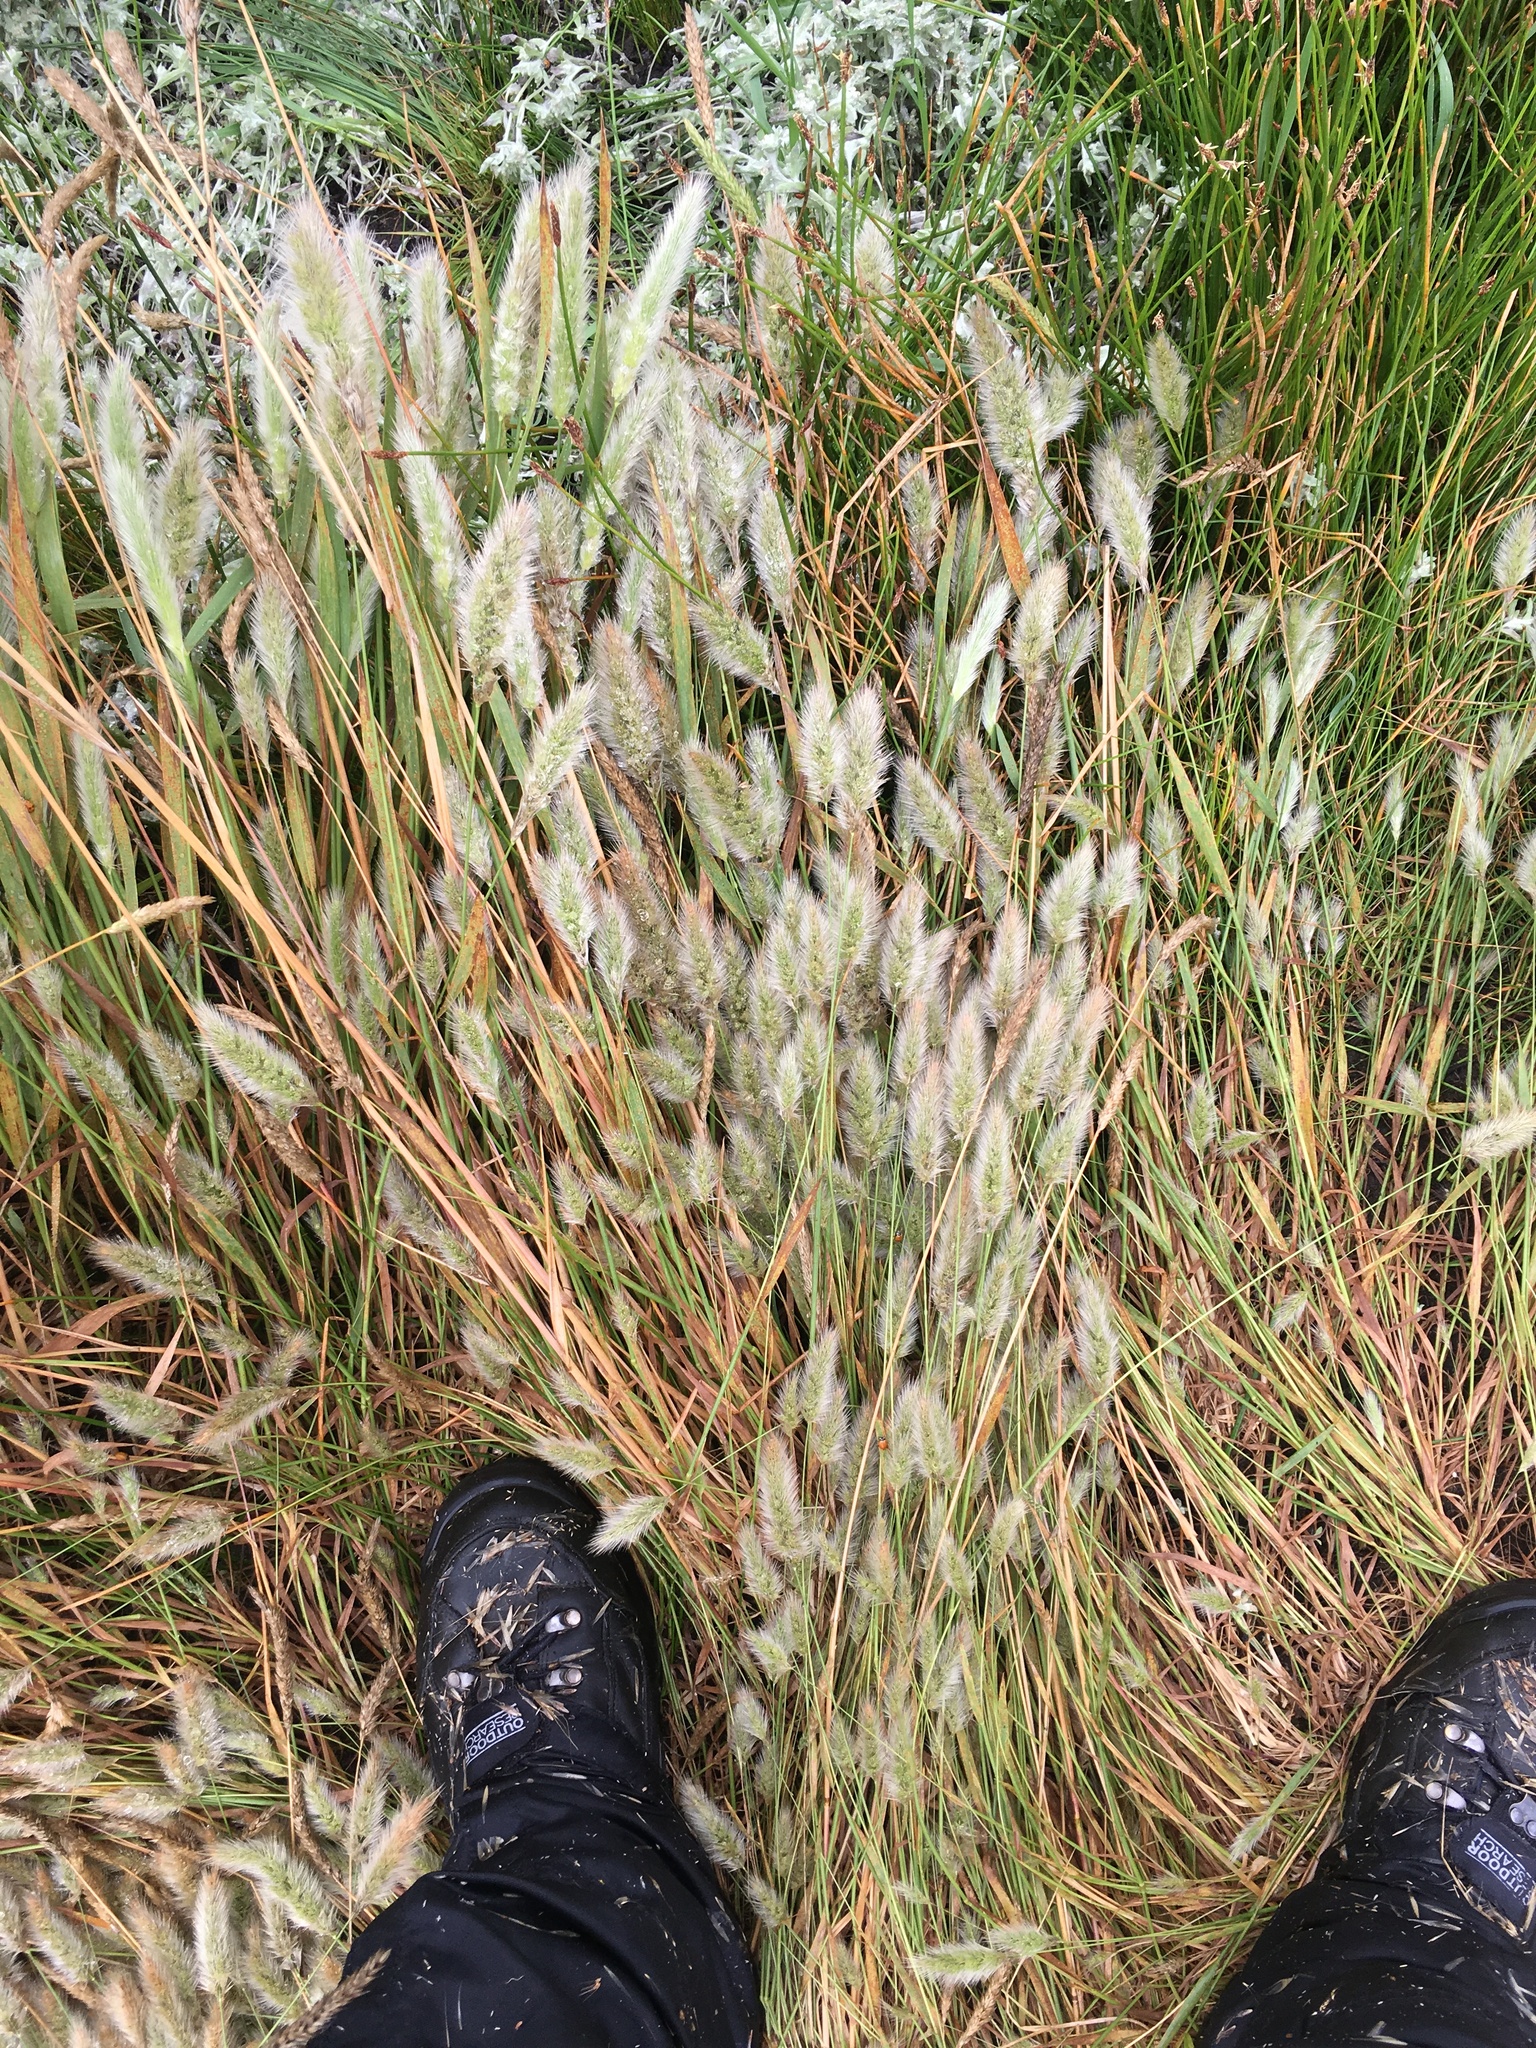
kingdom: Plantae
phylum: Tracheophyta
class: Liliopsida
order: Poales
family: Poaceae
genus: Polypogon
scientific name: Polypogon monspeliensis
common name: Annual rabbitsfoot grass
